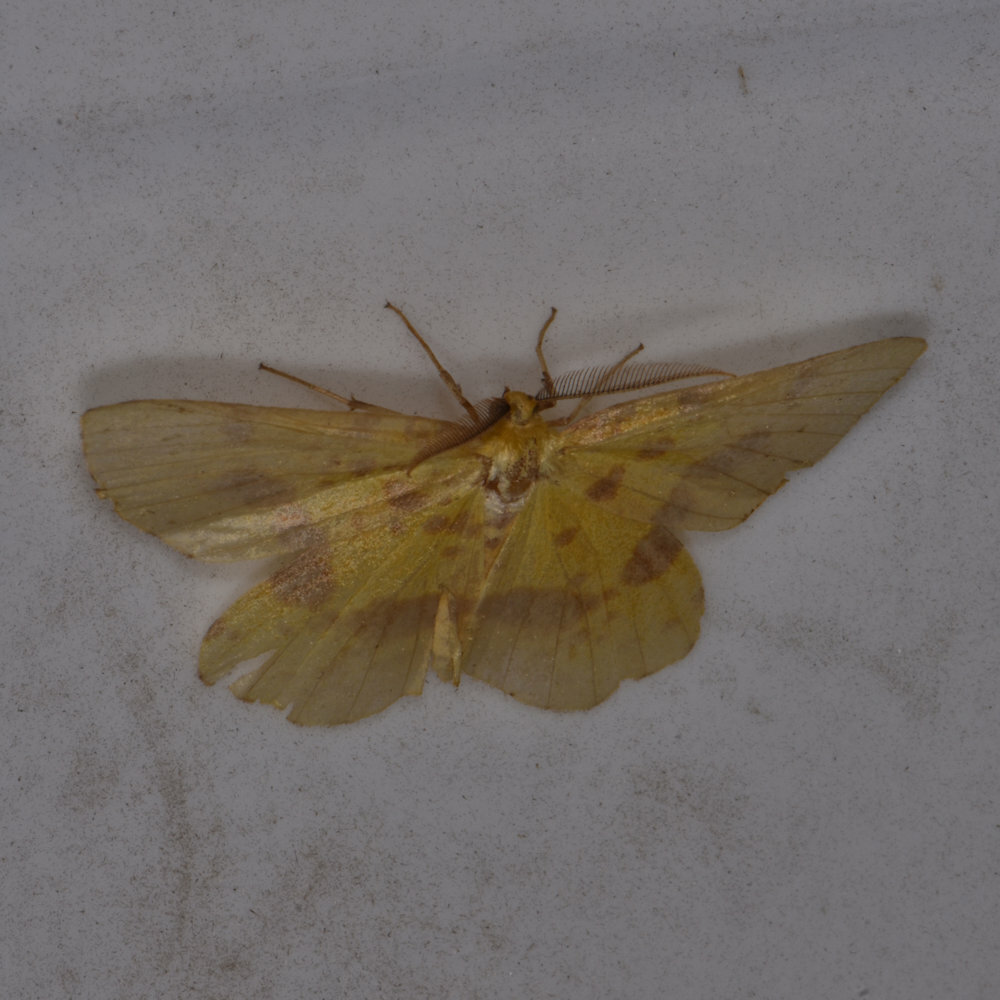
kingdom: Animalia
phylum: Arthropoda
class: Insecta
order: Lepidoptera
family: Geometridae
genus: Xanthotype
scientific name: Xanthotype
